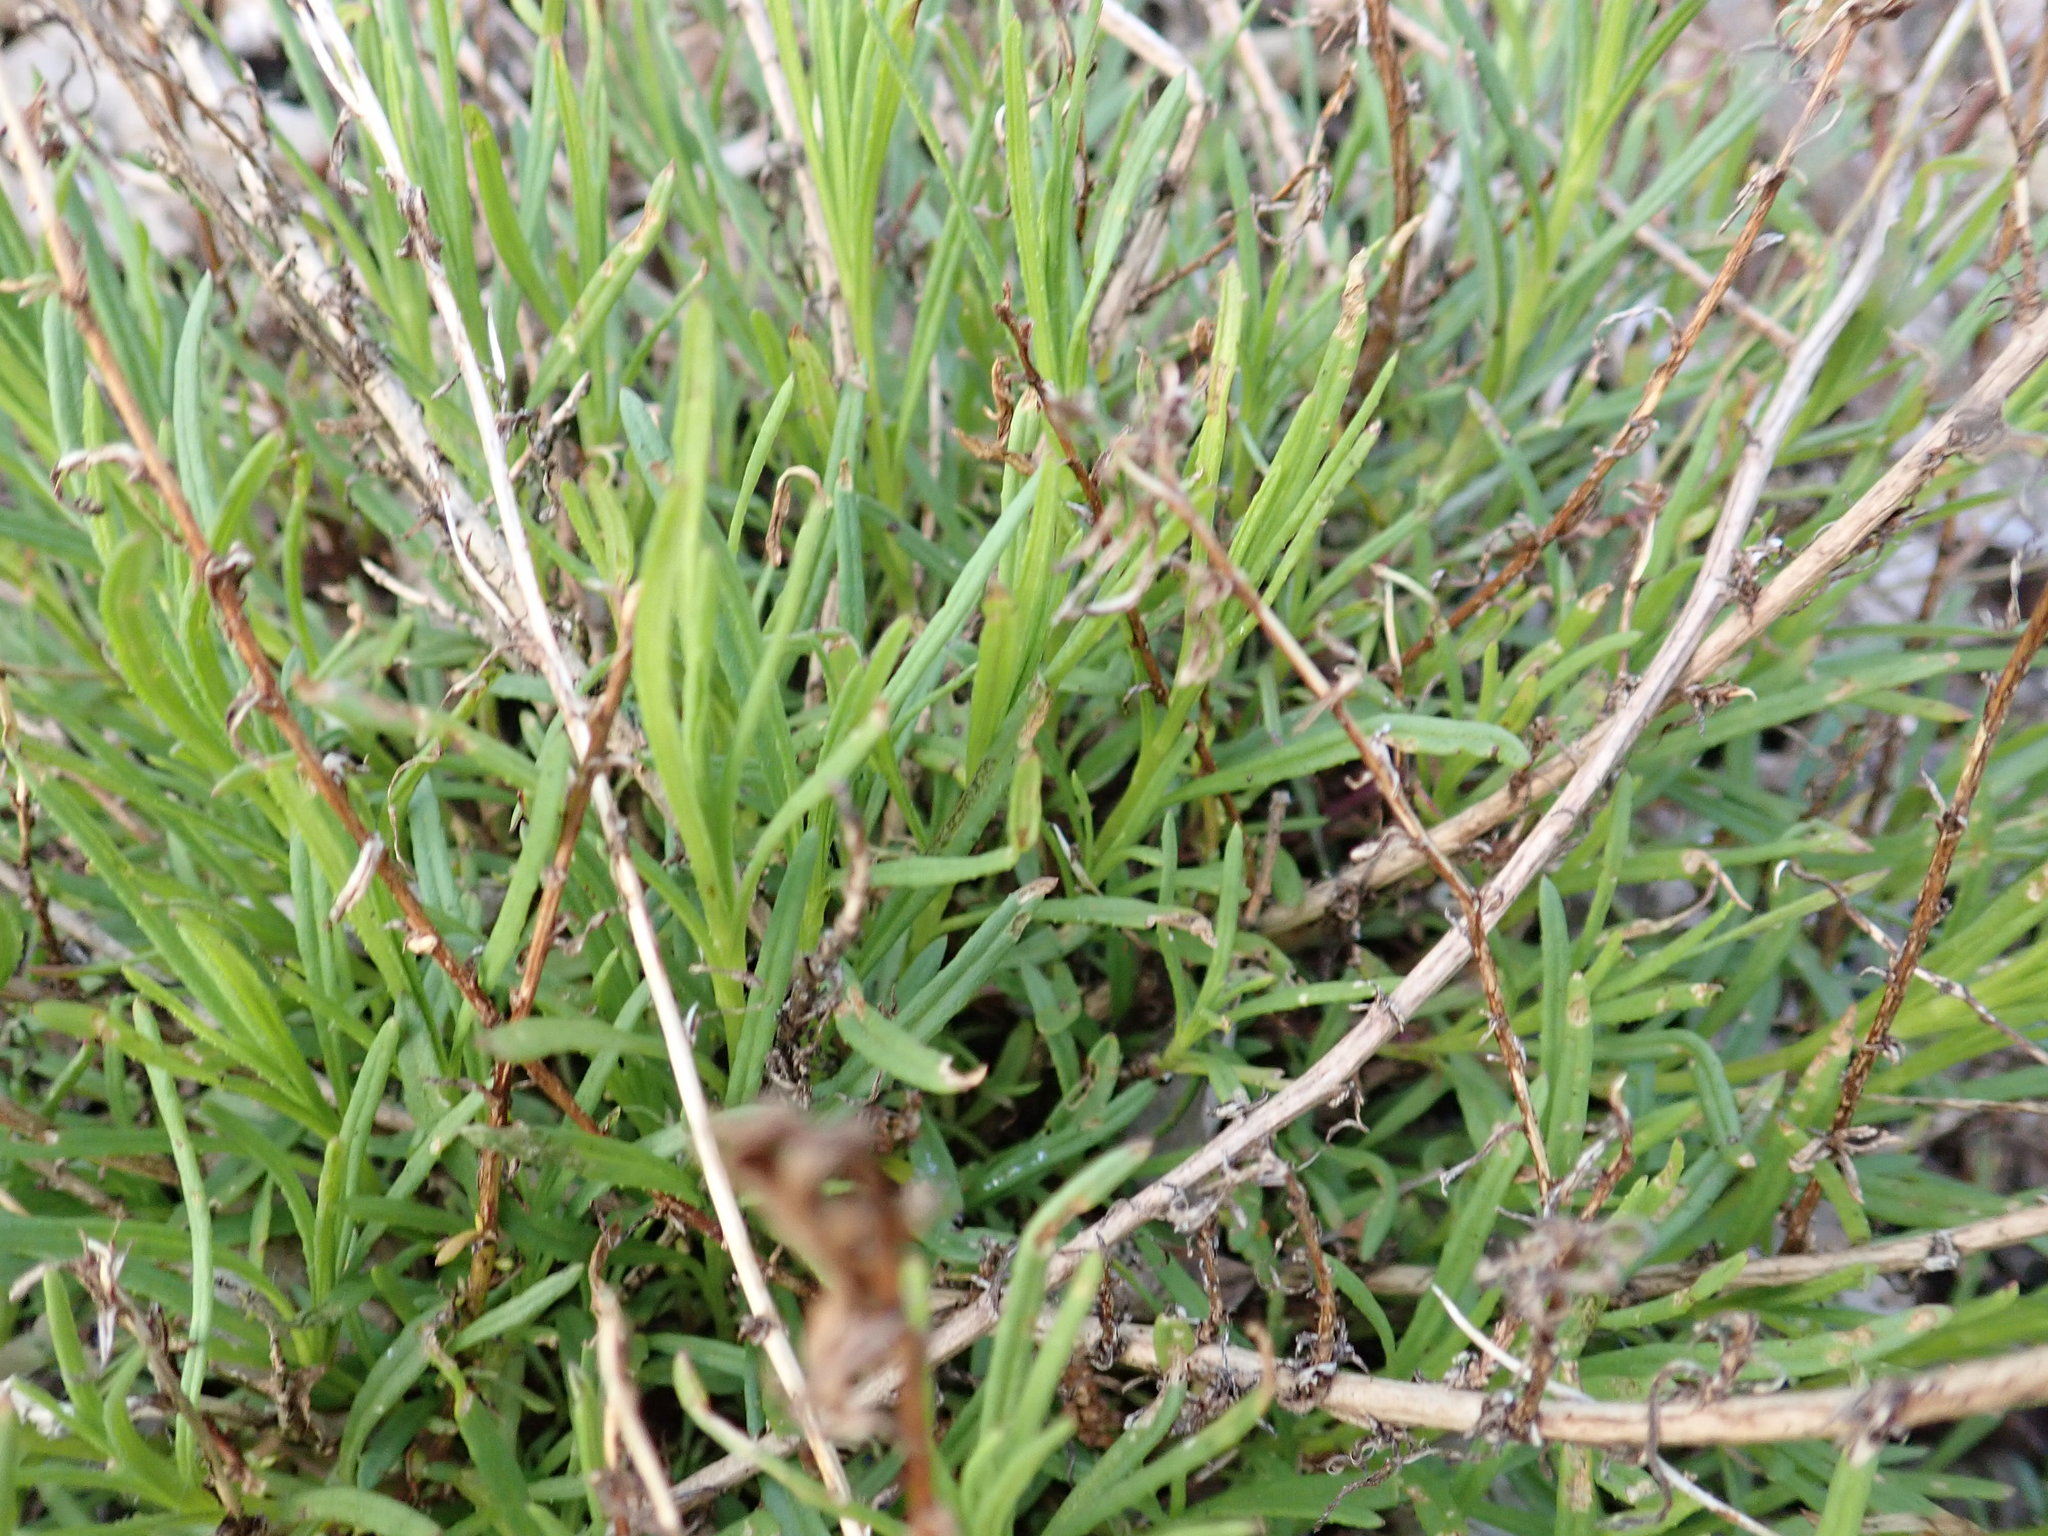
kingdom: Plantae
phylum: Tracheophyta
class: Magnoliopsida
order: Asterales
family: Asteraceae
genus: Senecio
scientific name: Senecio inaequidens
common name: Narrow-leaved ragwort
